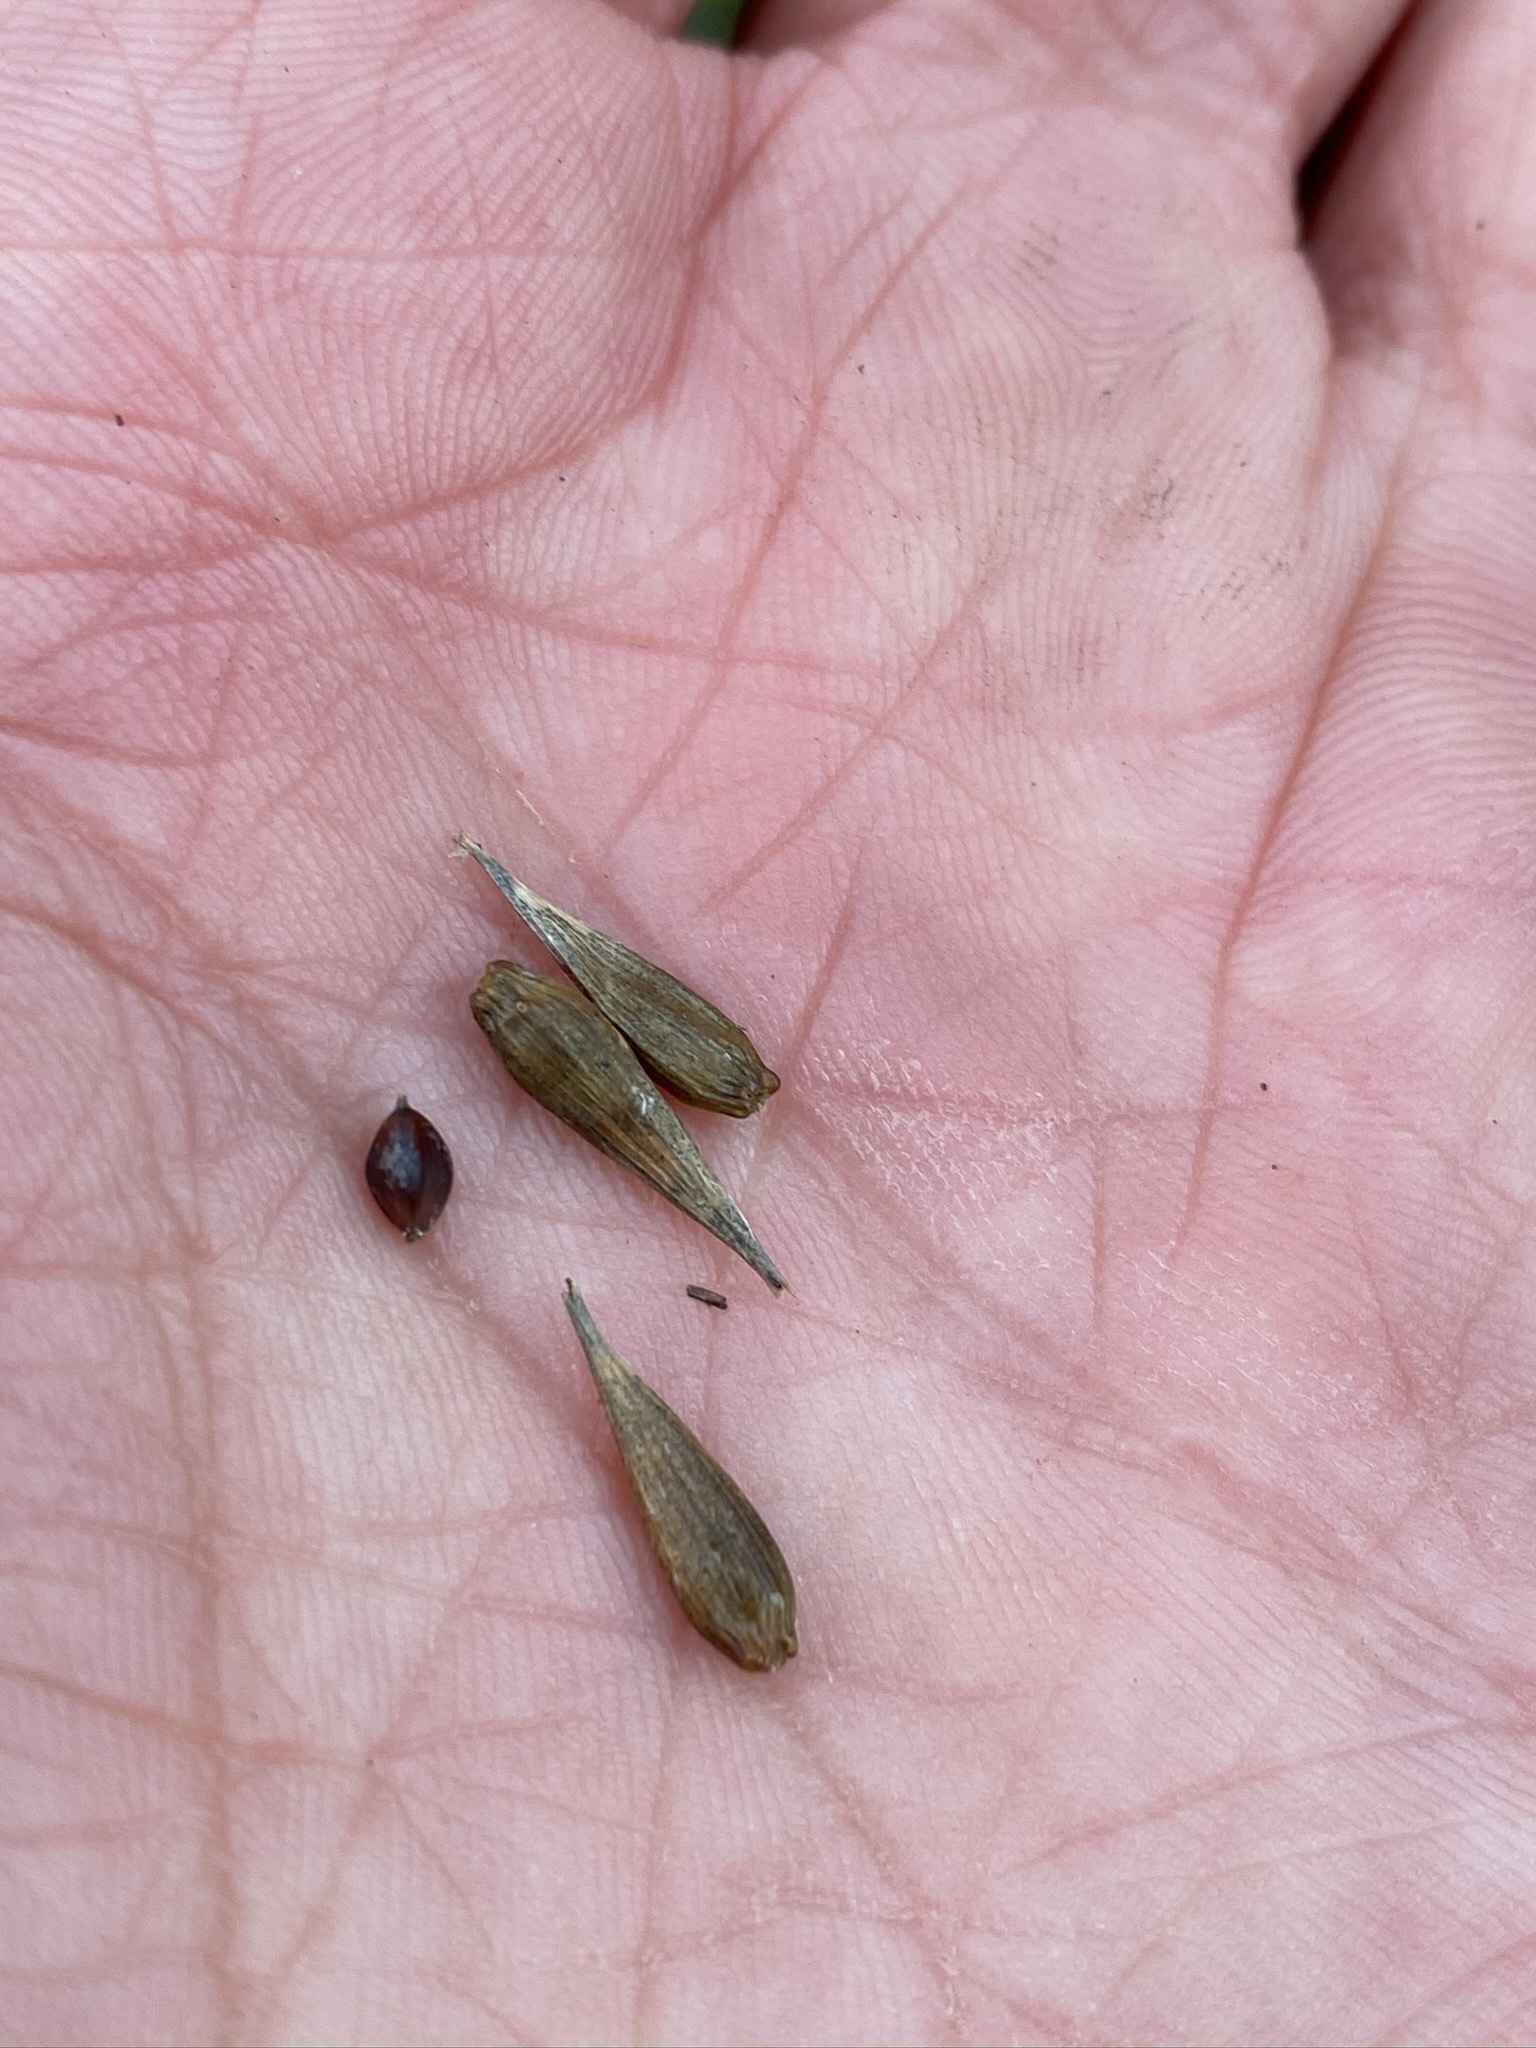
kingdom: Plantae
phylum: Tracheophyta
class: Liliopsida
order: Poales
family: Cyperaceae
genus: Carex
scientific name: Carex folliculata
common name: Northern long sedge
